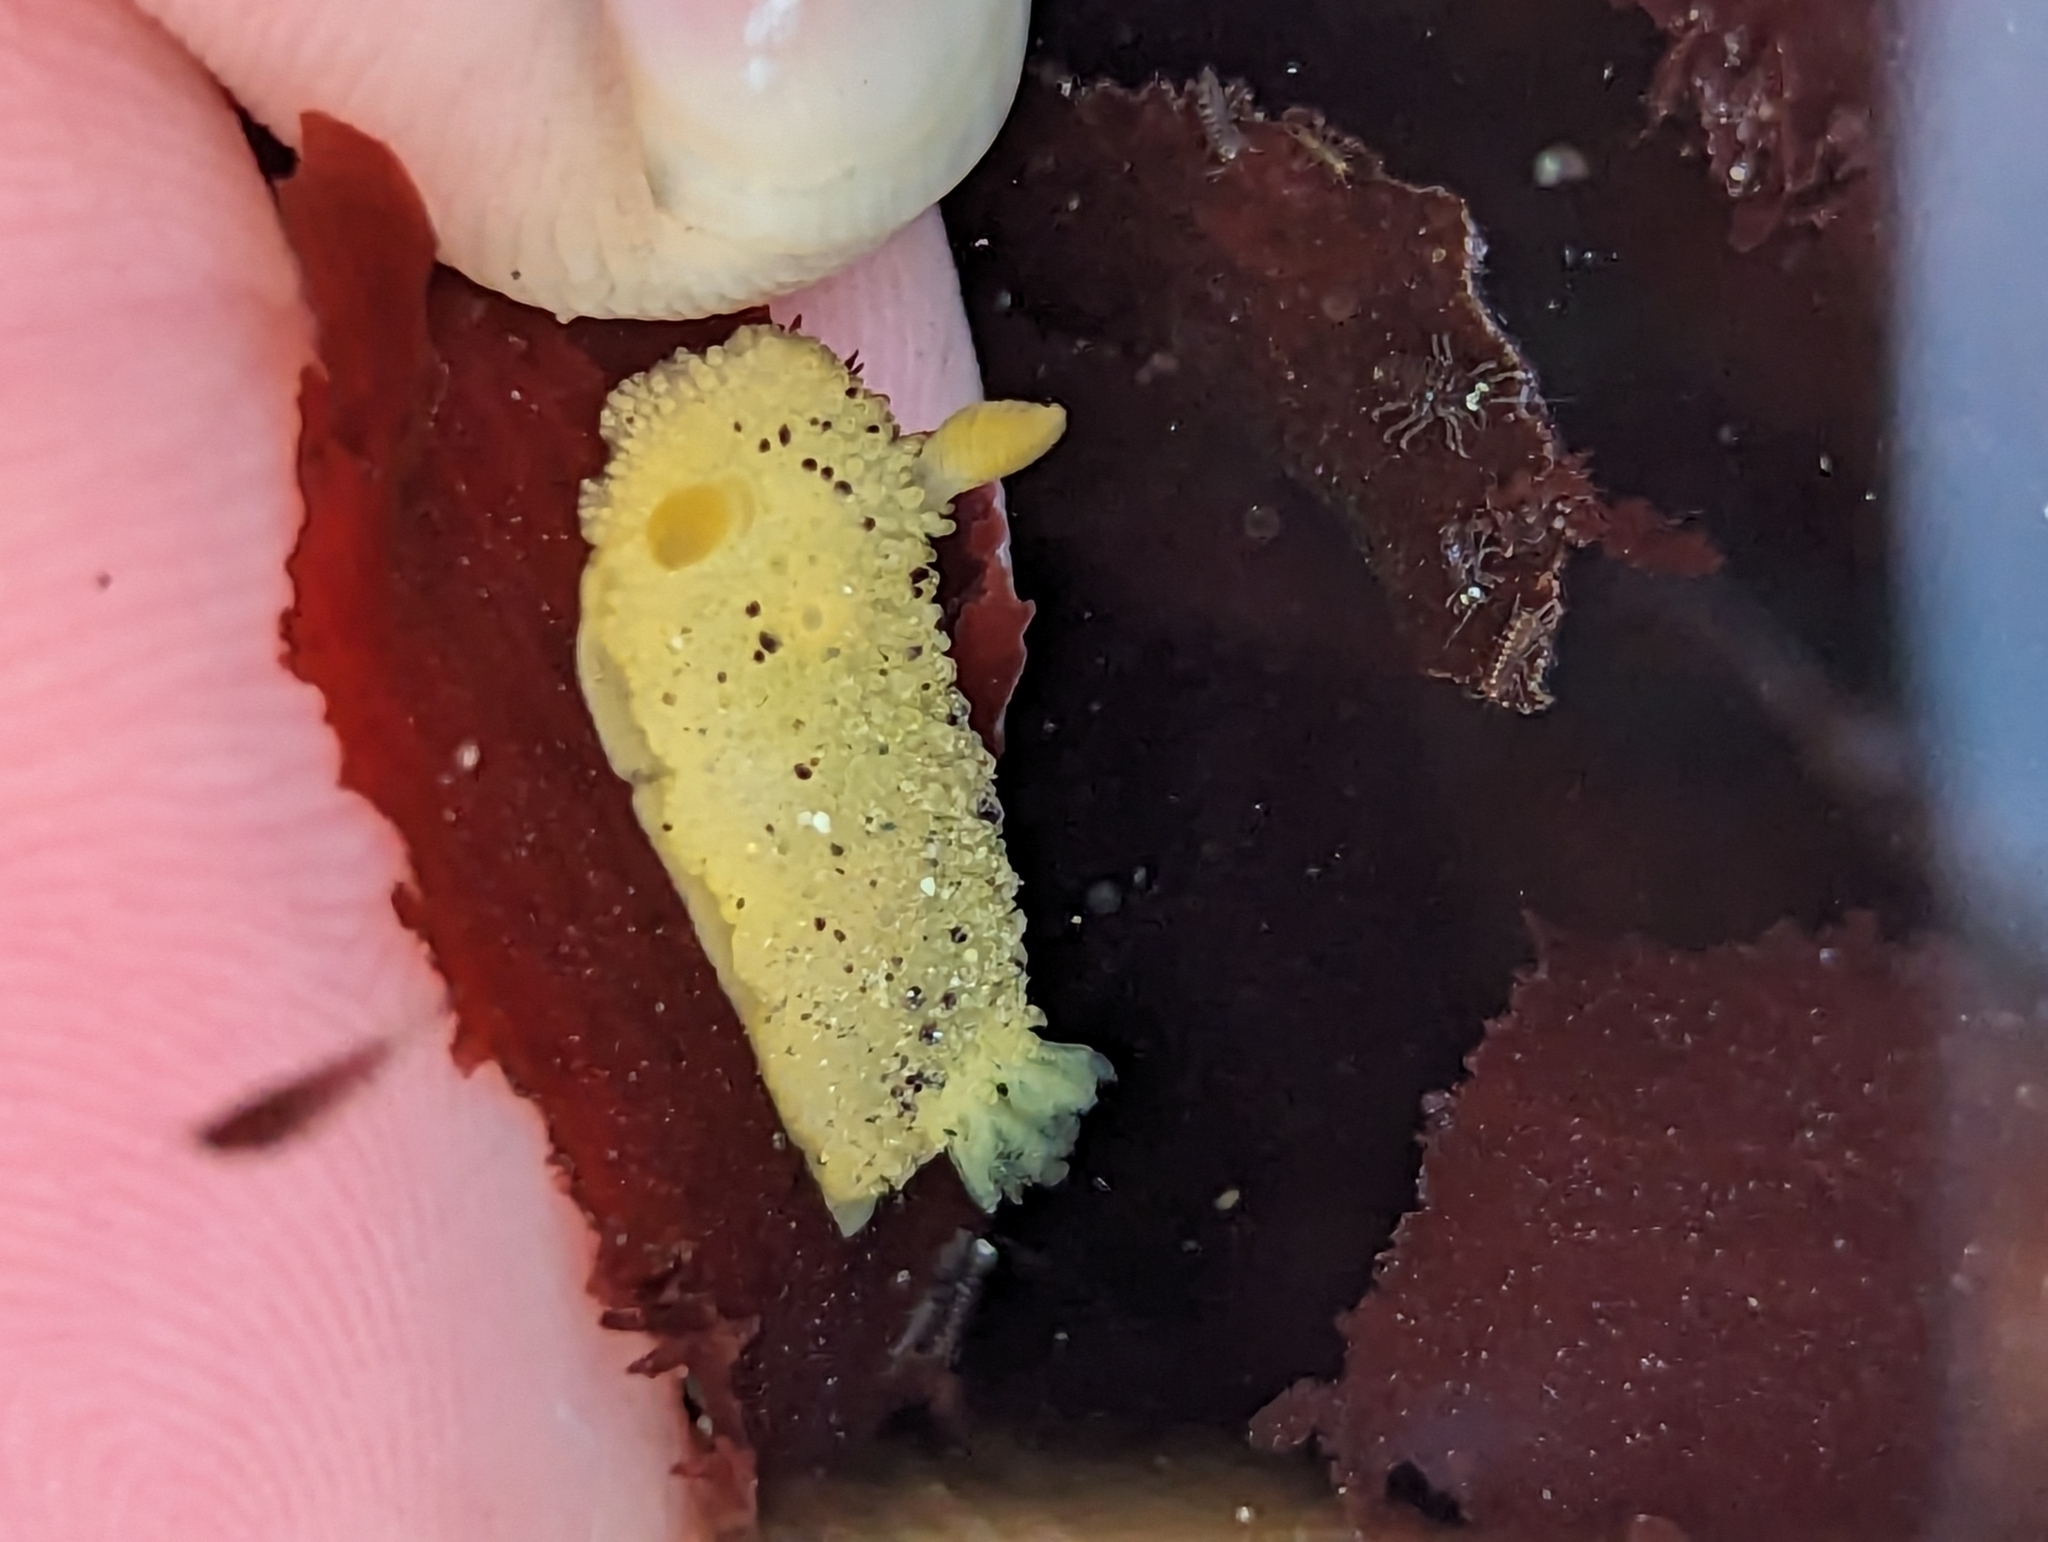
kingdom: Animalia
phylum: Mollusca
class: Gastropoda
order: Nudibranchia
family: Dorididae
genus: Doris
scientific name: Doris montereyensis
